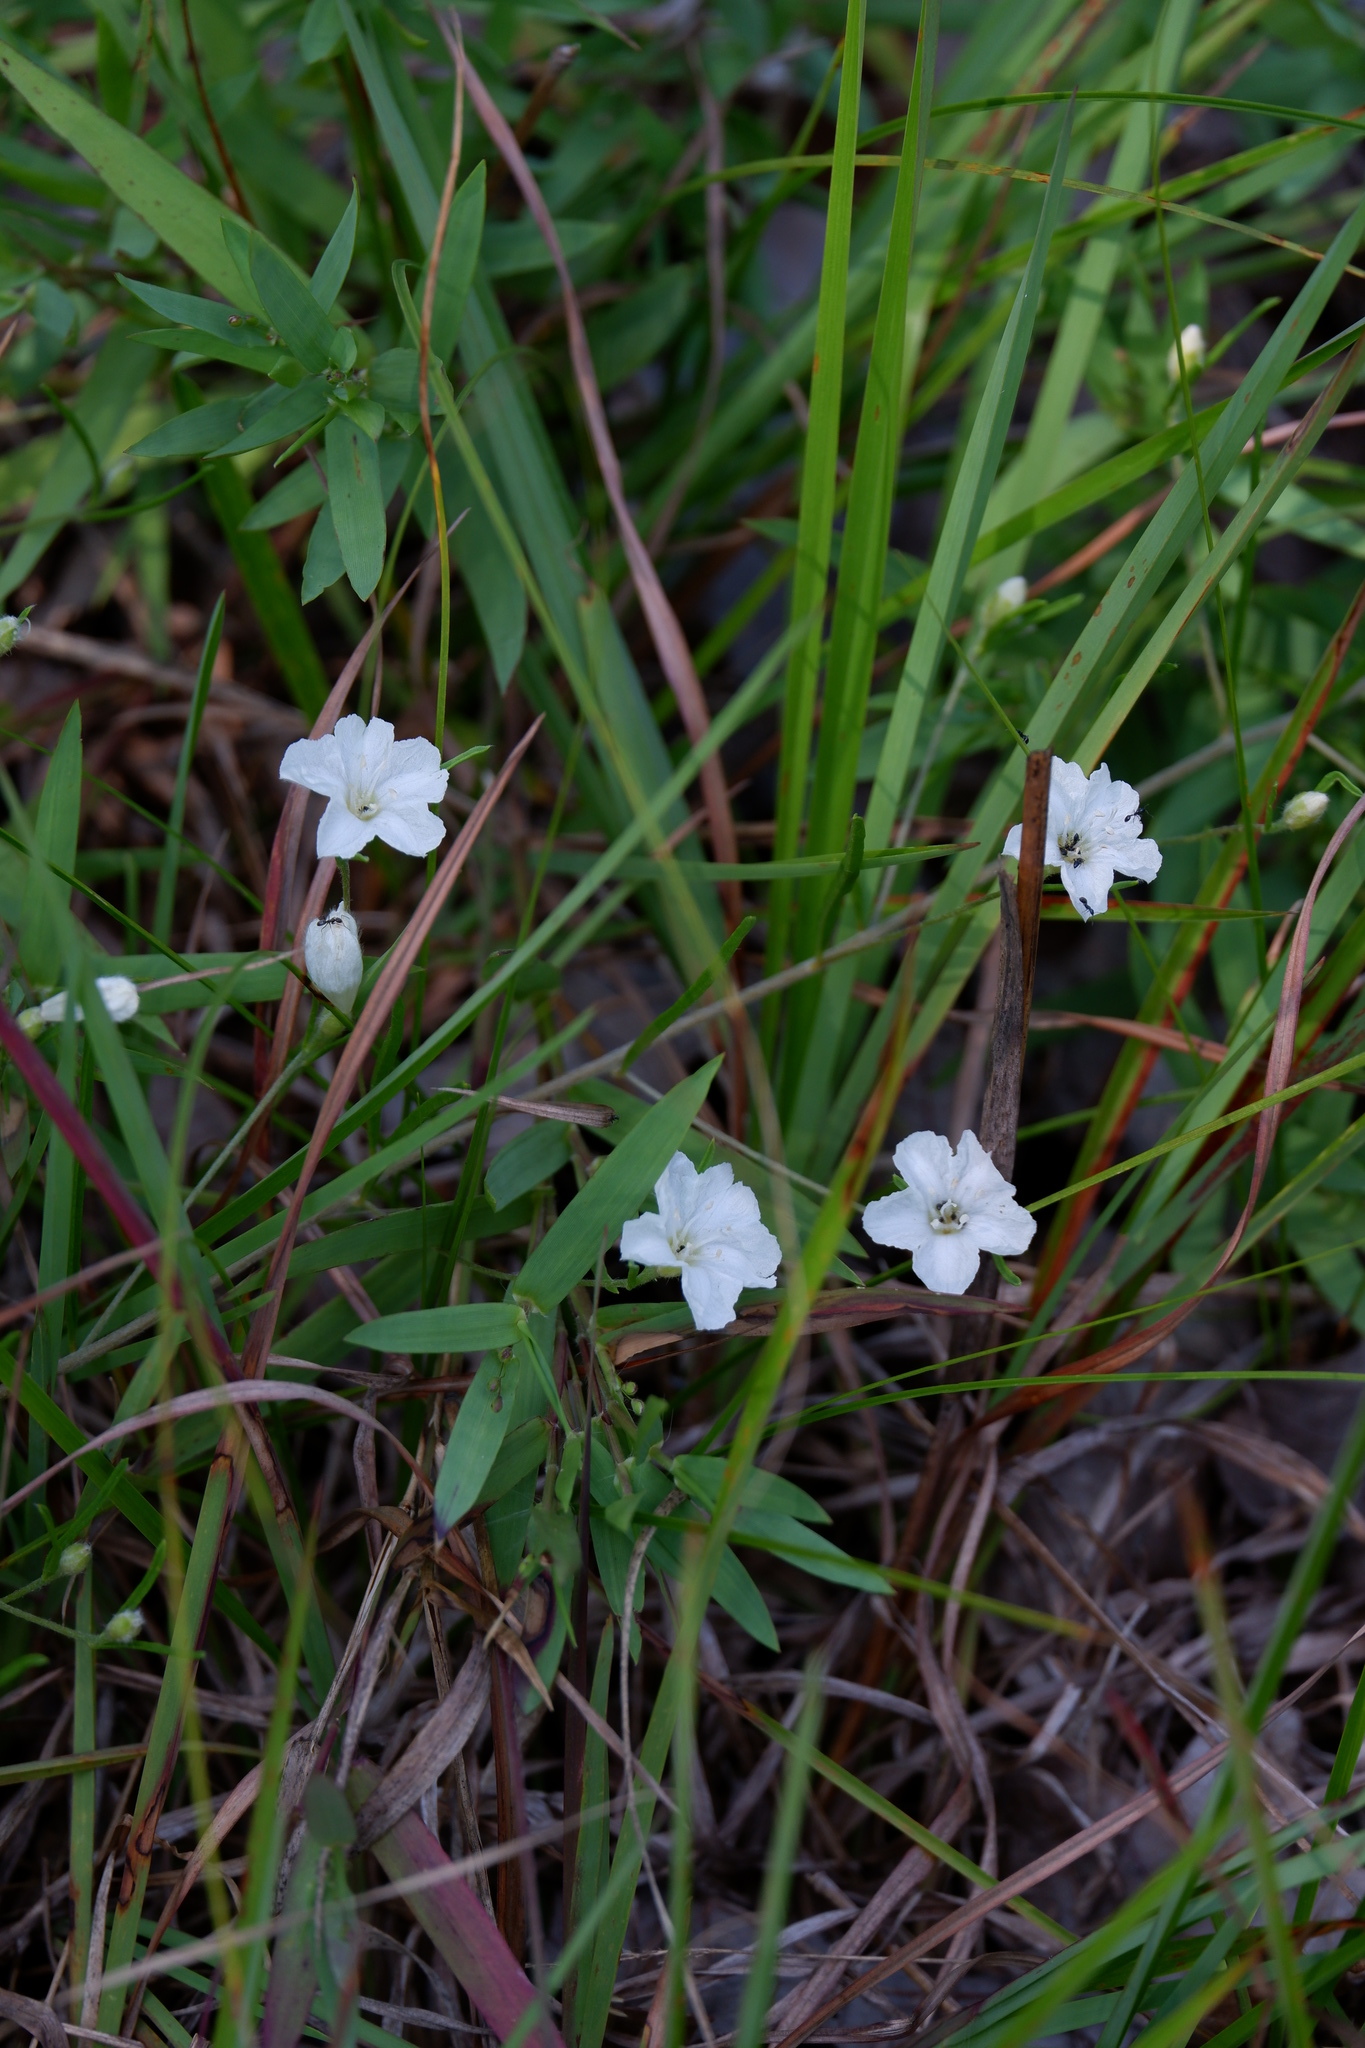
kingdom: Plantae
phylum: Tracheophyta
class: Magnoliopsida
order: Solanales
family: Convolvulaceae
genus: Stylisma
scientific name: Stylisma pickeringii
